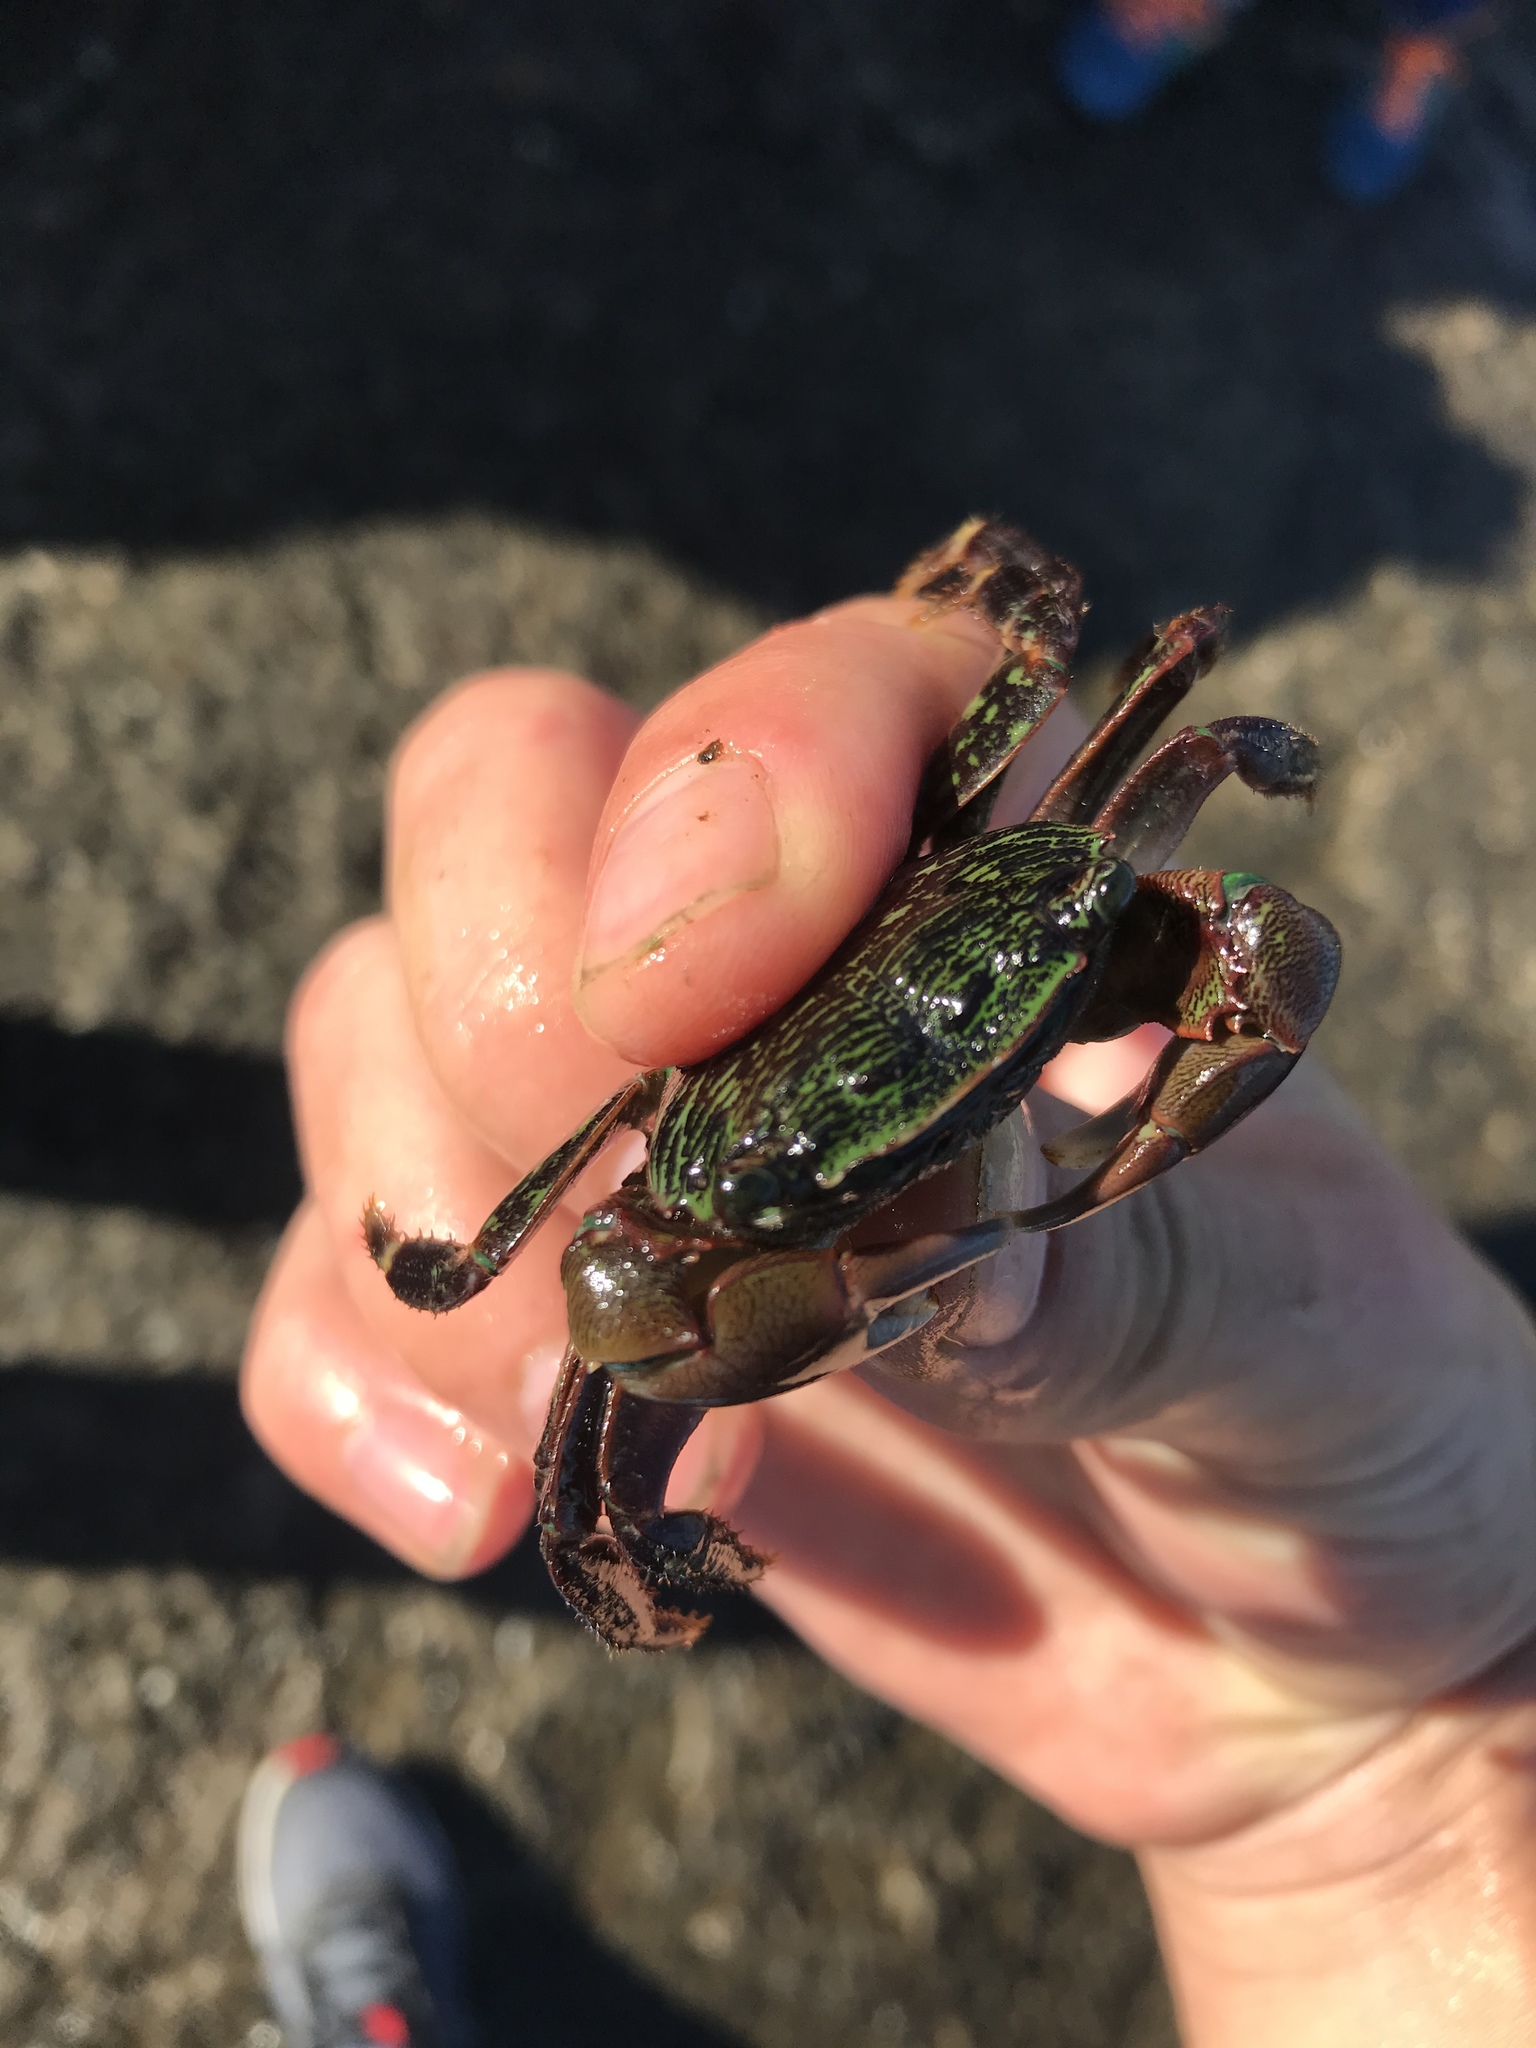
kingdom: Animalia
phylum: Arthropoda
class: Malacostraca
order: Decapoda
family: Grapsidae
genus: Pachygrapsus
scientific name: Pachygrapsus crassipes
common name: Striped shore crab
